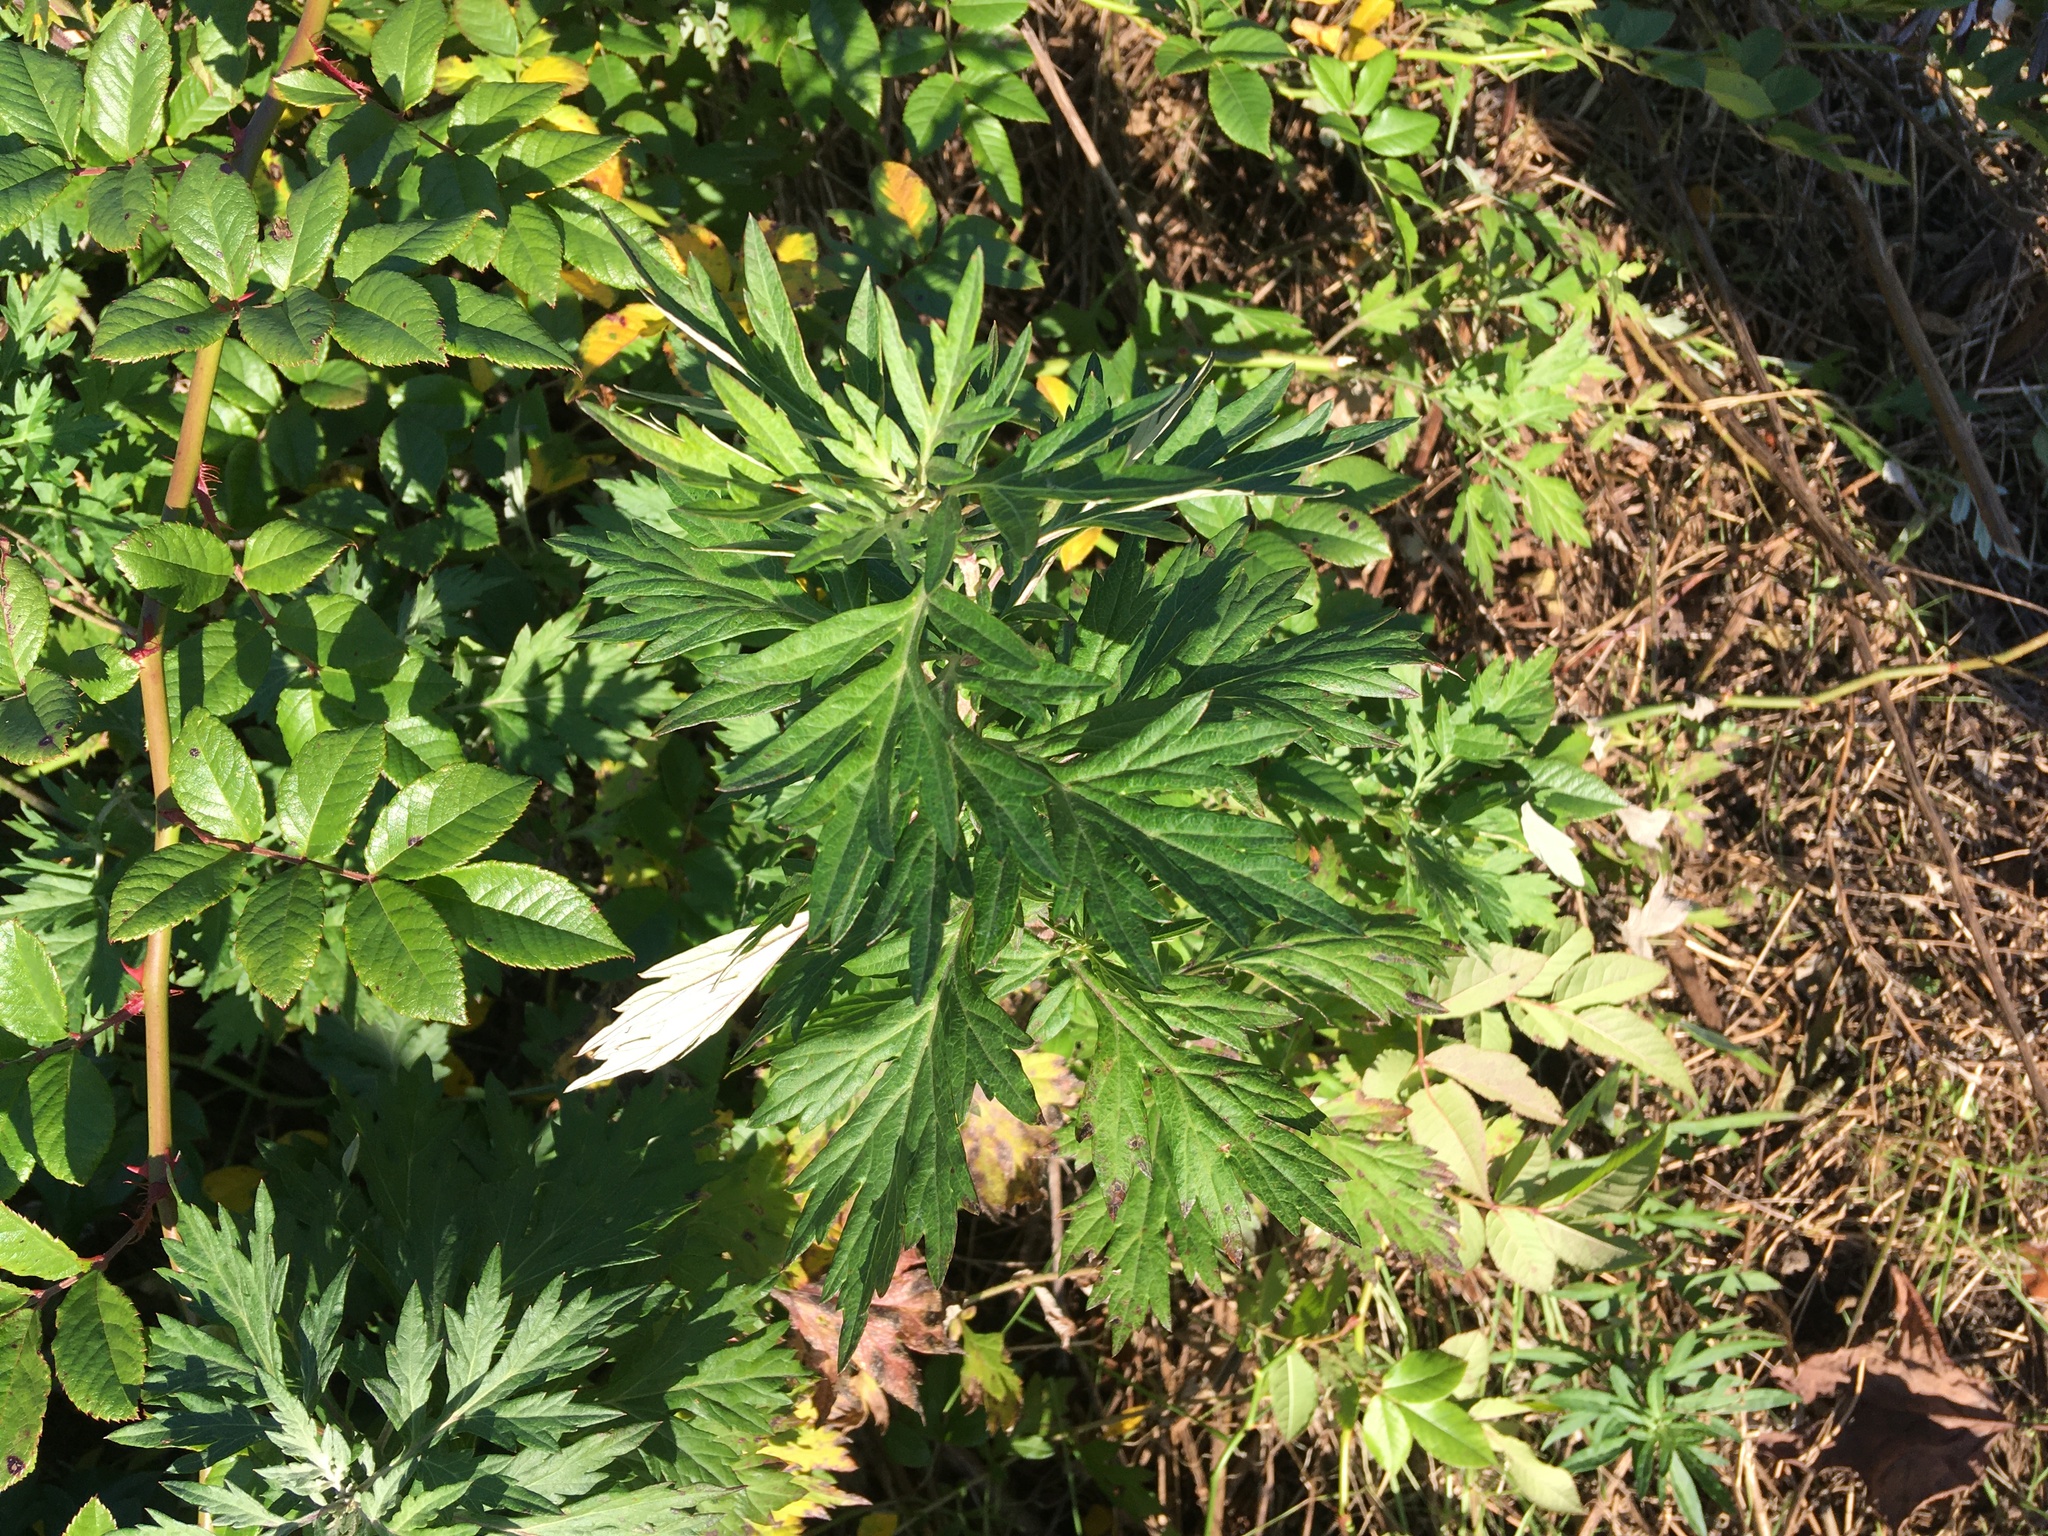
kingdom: Plantae
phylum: Tracheophyta
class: Magnoliopsida
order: Asterales
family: Asteraceae
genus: Artemisia
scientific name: Artemisia vulgaris
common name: Mugwort
